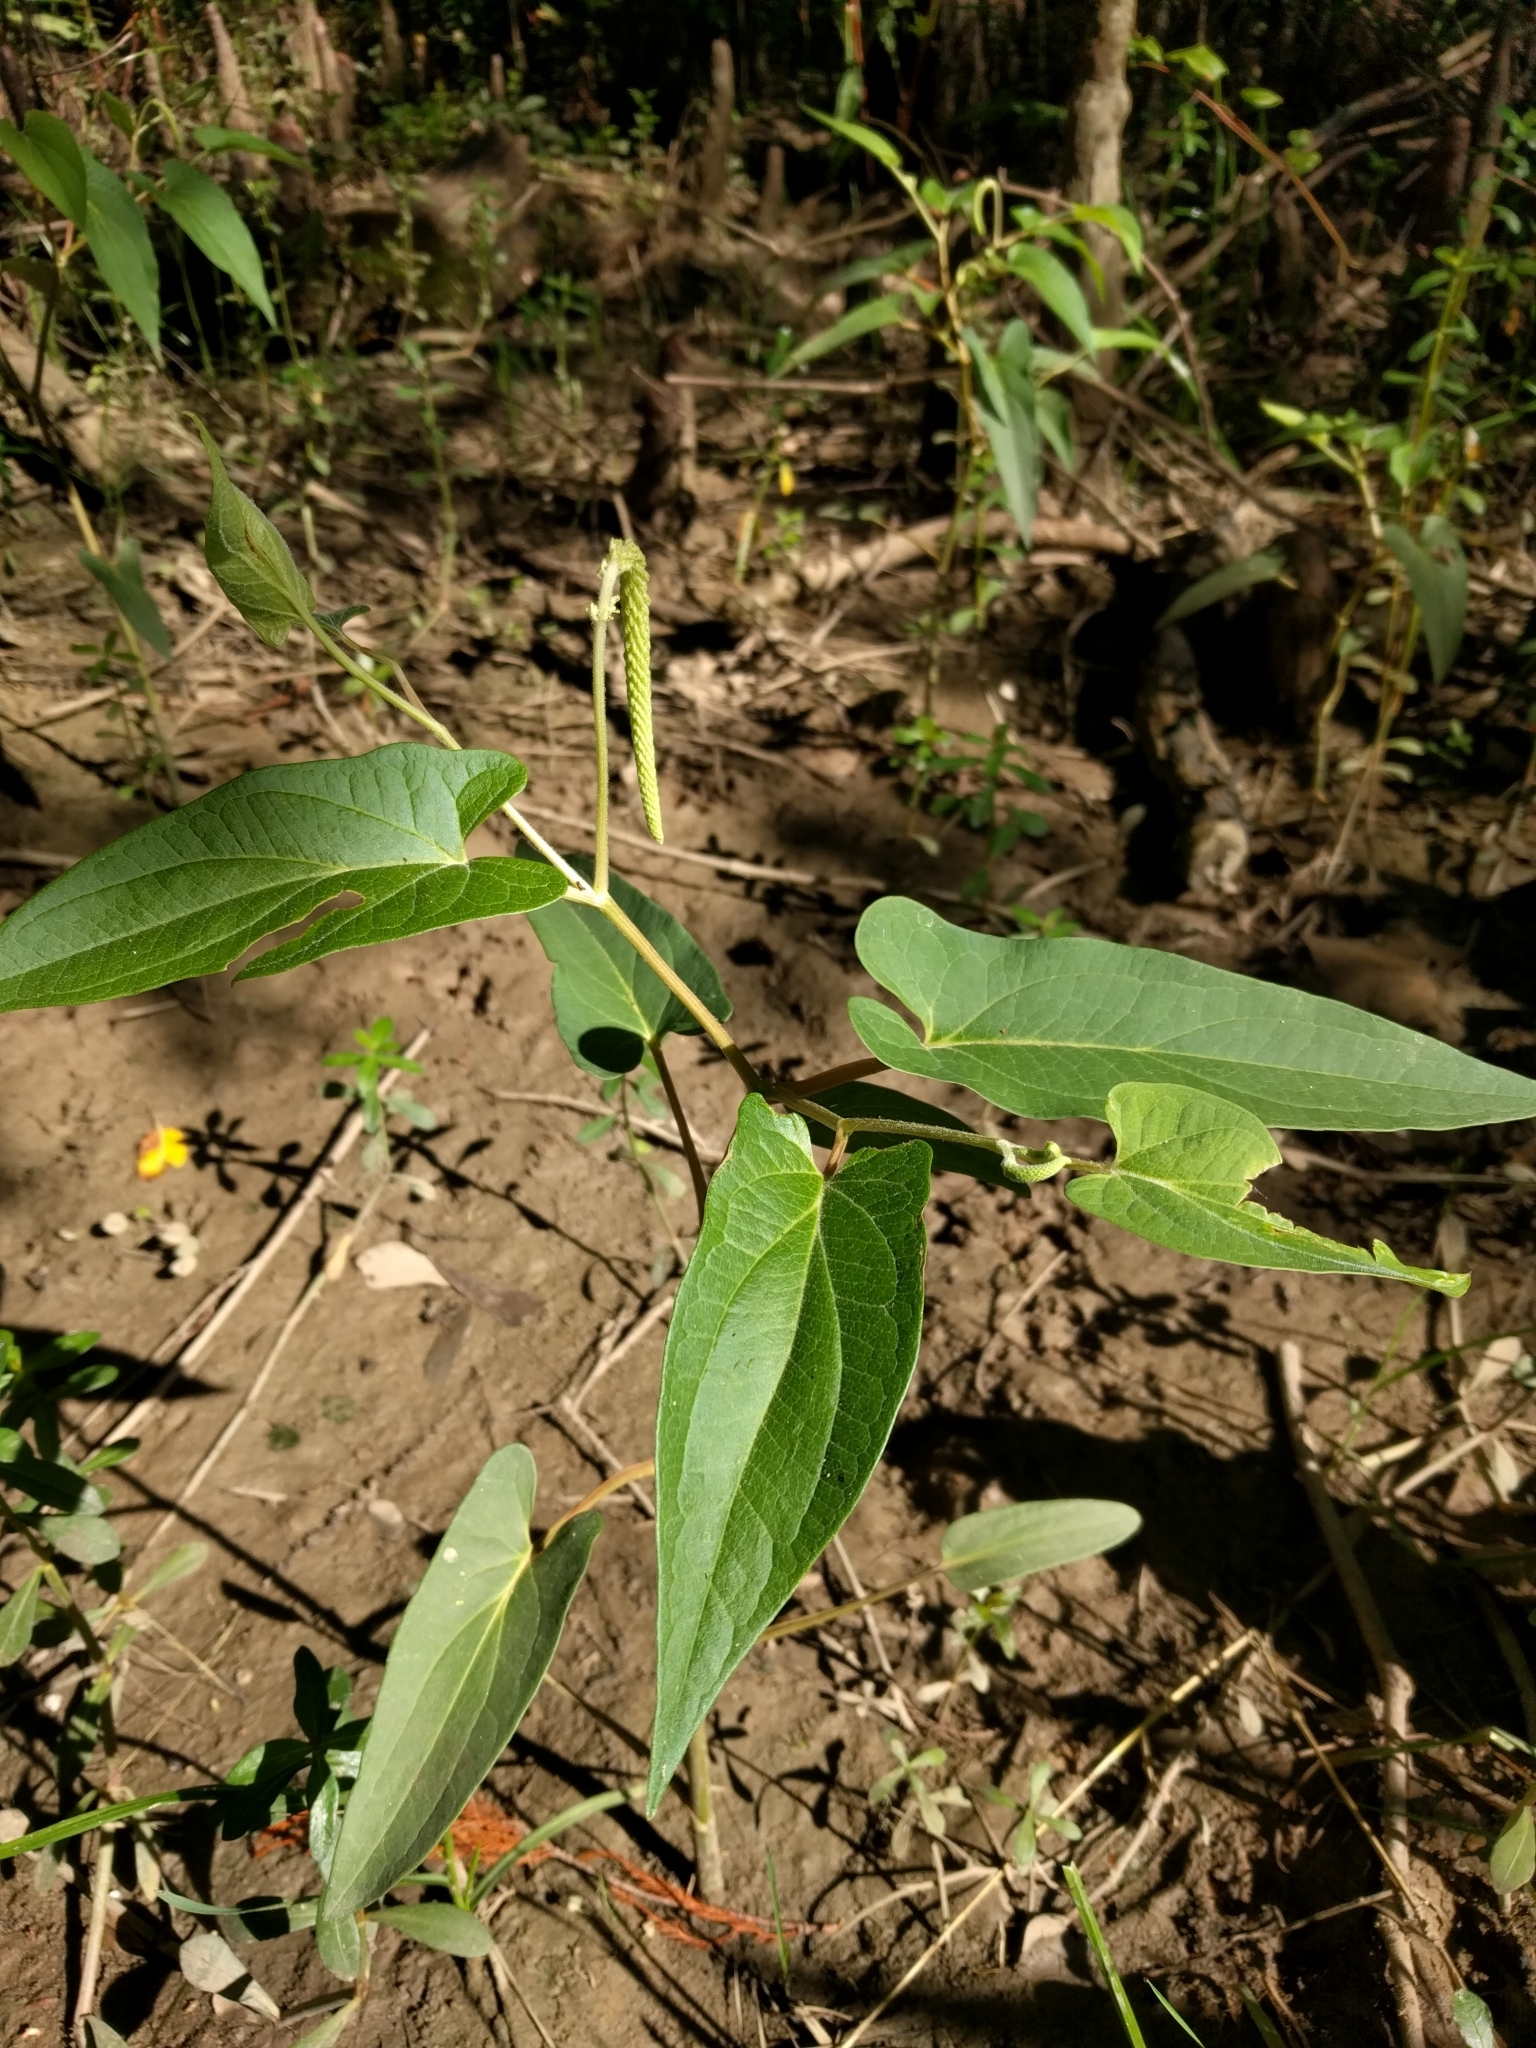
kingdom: Plantae
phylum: Tracheophyta
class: Magnoliopsida
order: Piperales
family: Saururaceae
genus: Saururus
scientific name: Saururus cernuus
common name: Lizard's-tail
